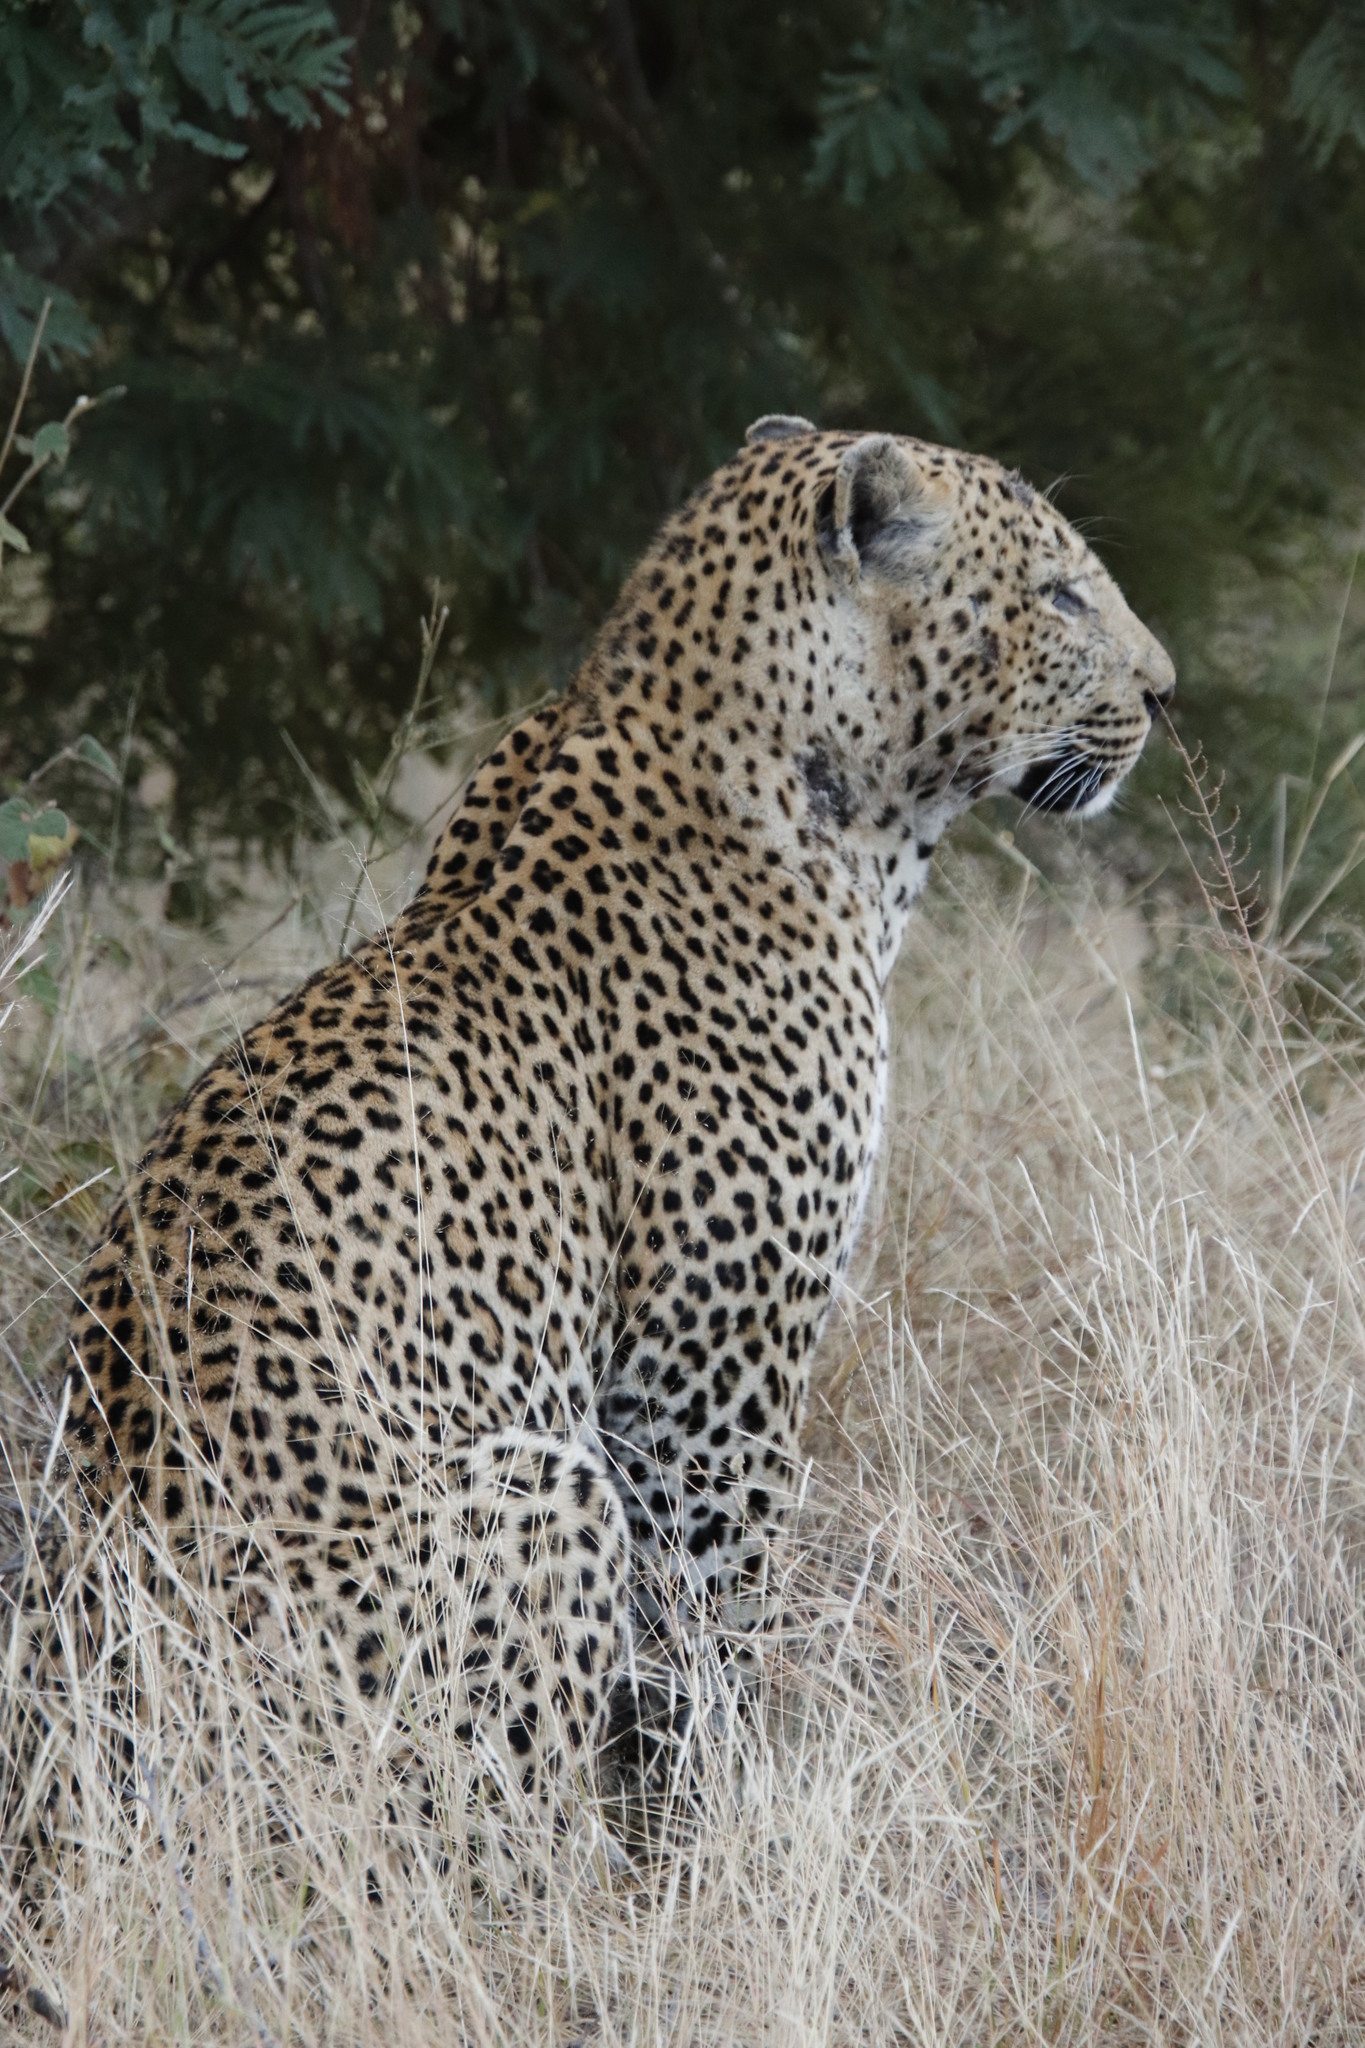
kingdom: Animalia
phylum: Chordata
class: Mammalia
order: Carnivora
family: Felidae
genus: Panthera
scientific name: Panthera pardus
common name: Leopard
